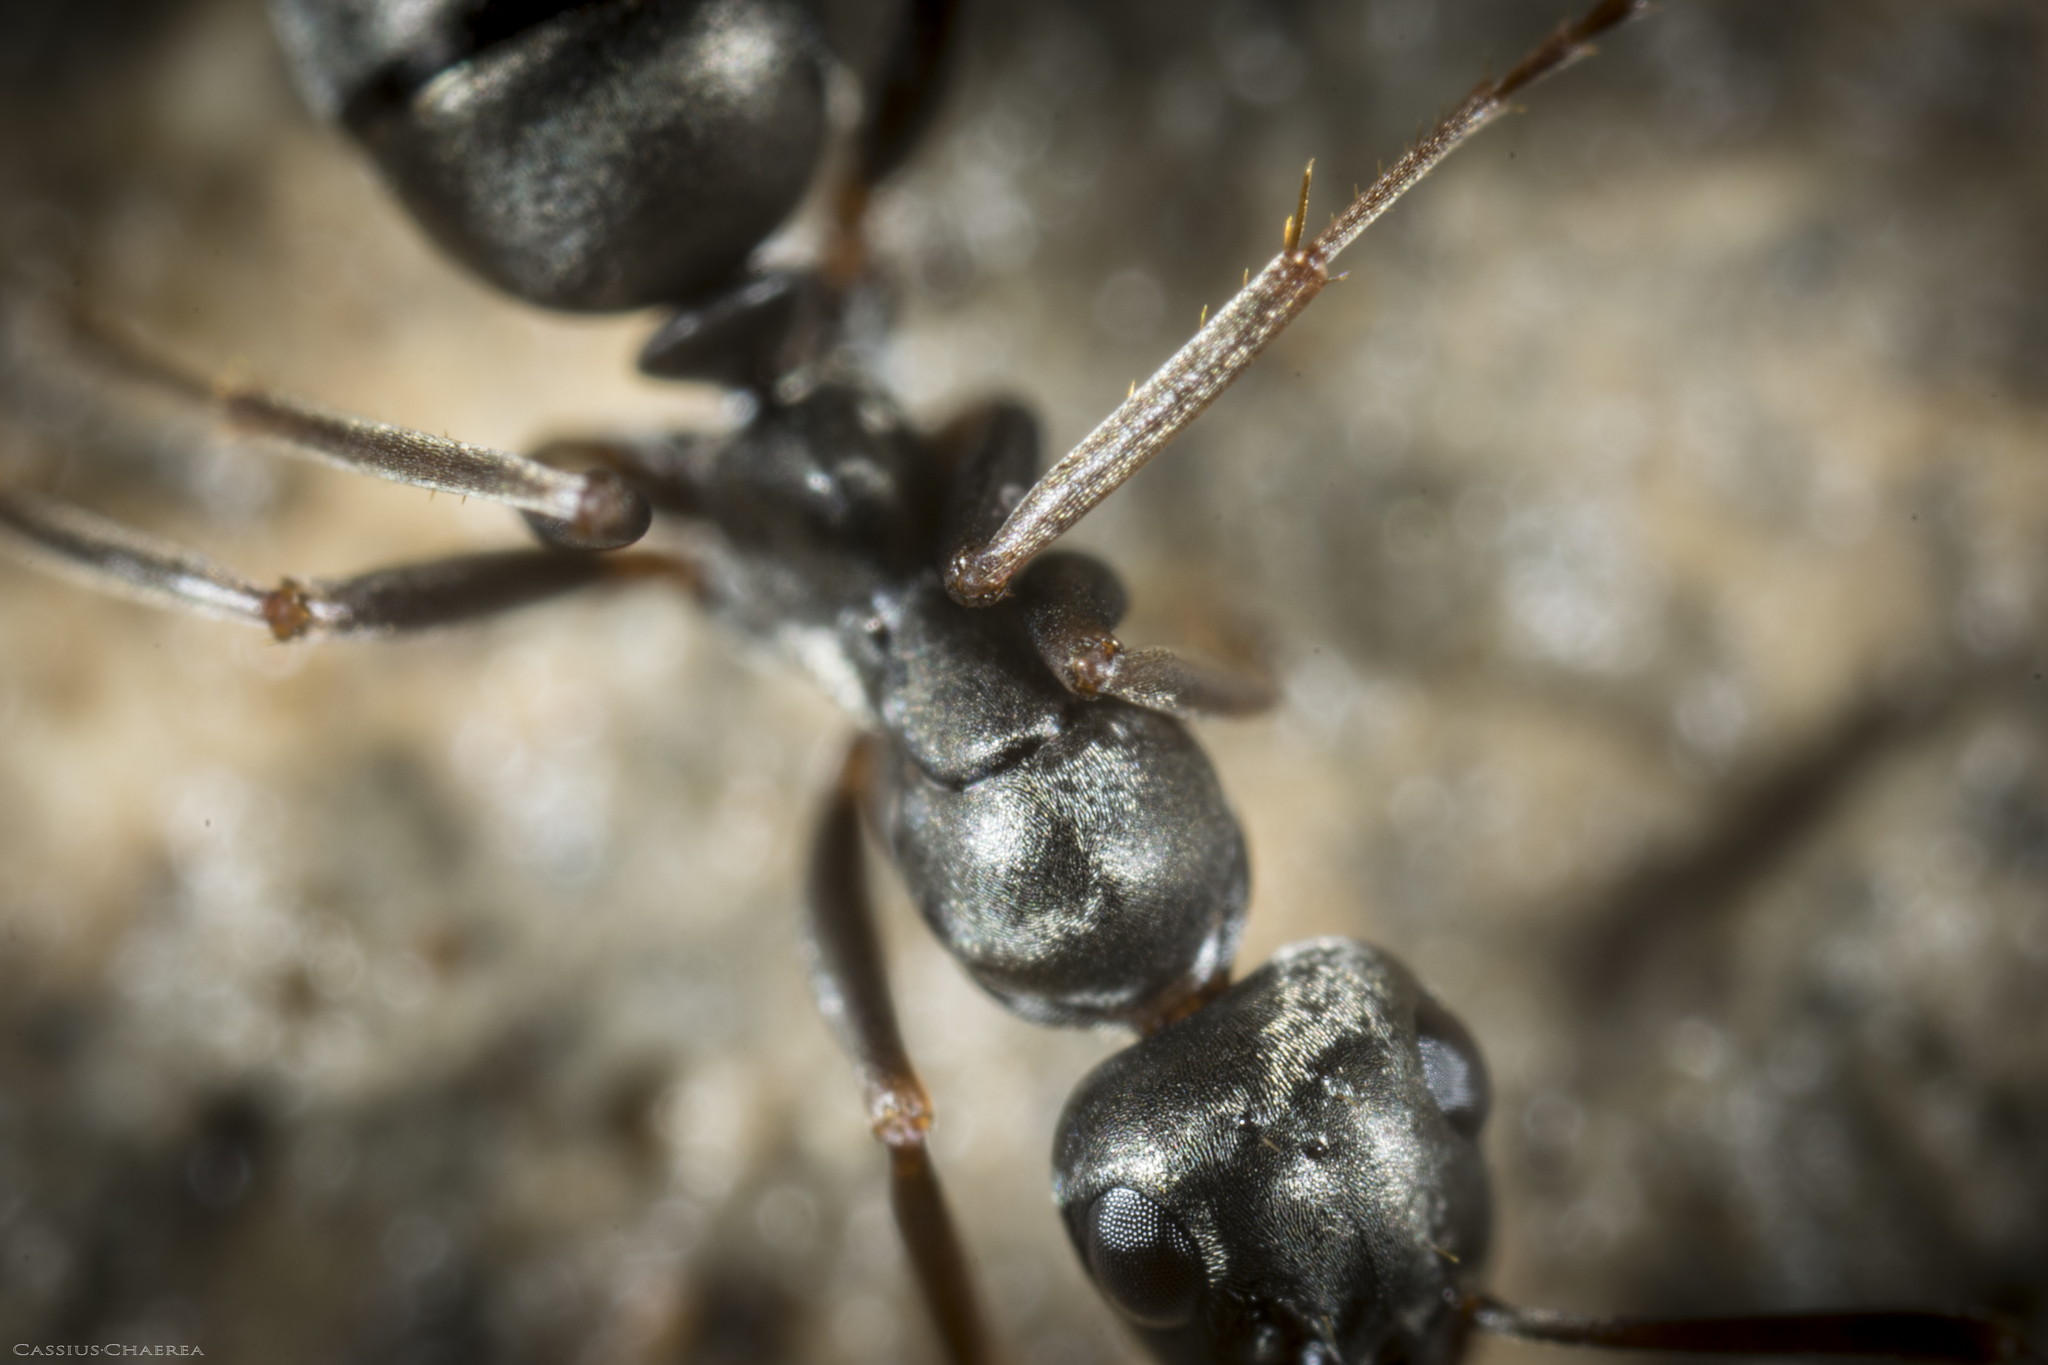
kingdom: Animalia
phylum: Arthropoda
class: Insecta
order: Hymenoptera
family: Formicidae
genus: Formica
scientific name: Formica fusca
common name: Silky ant
